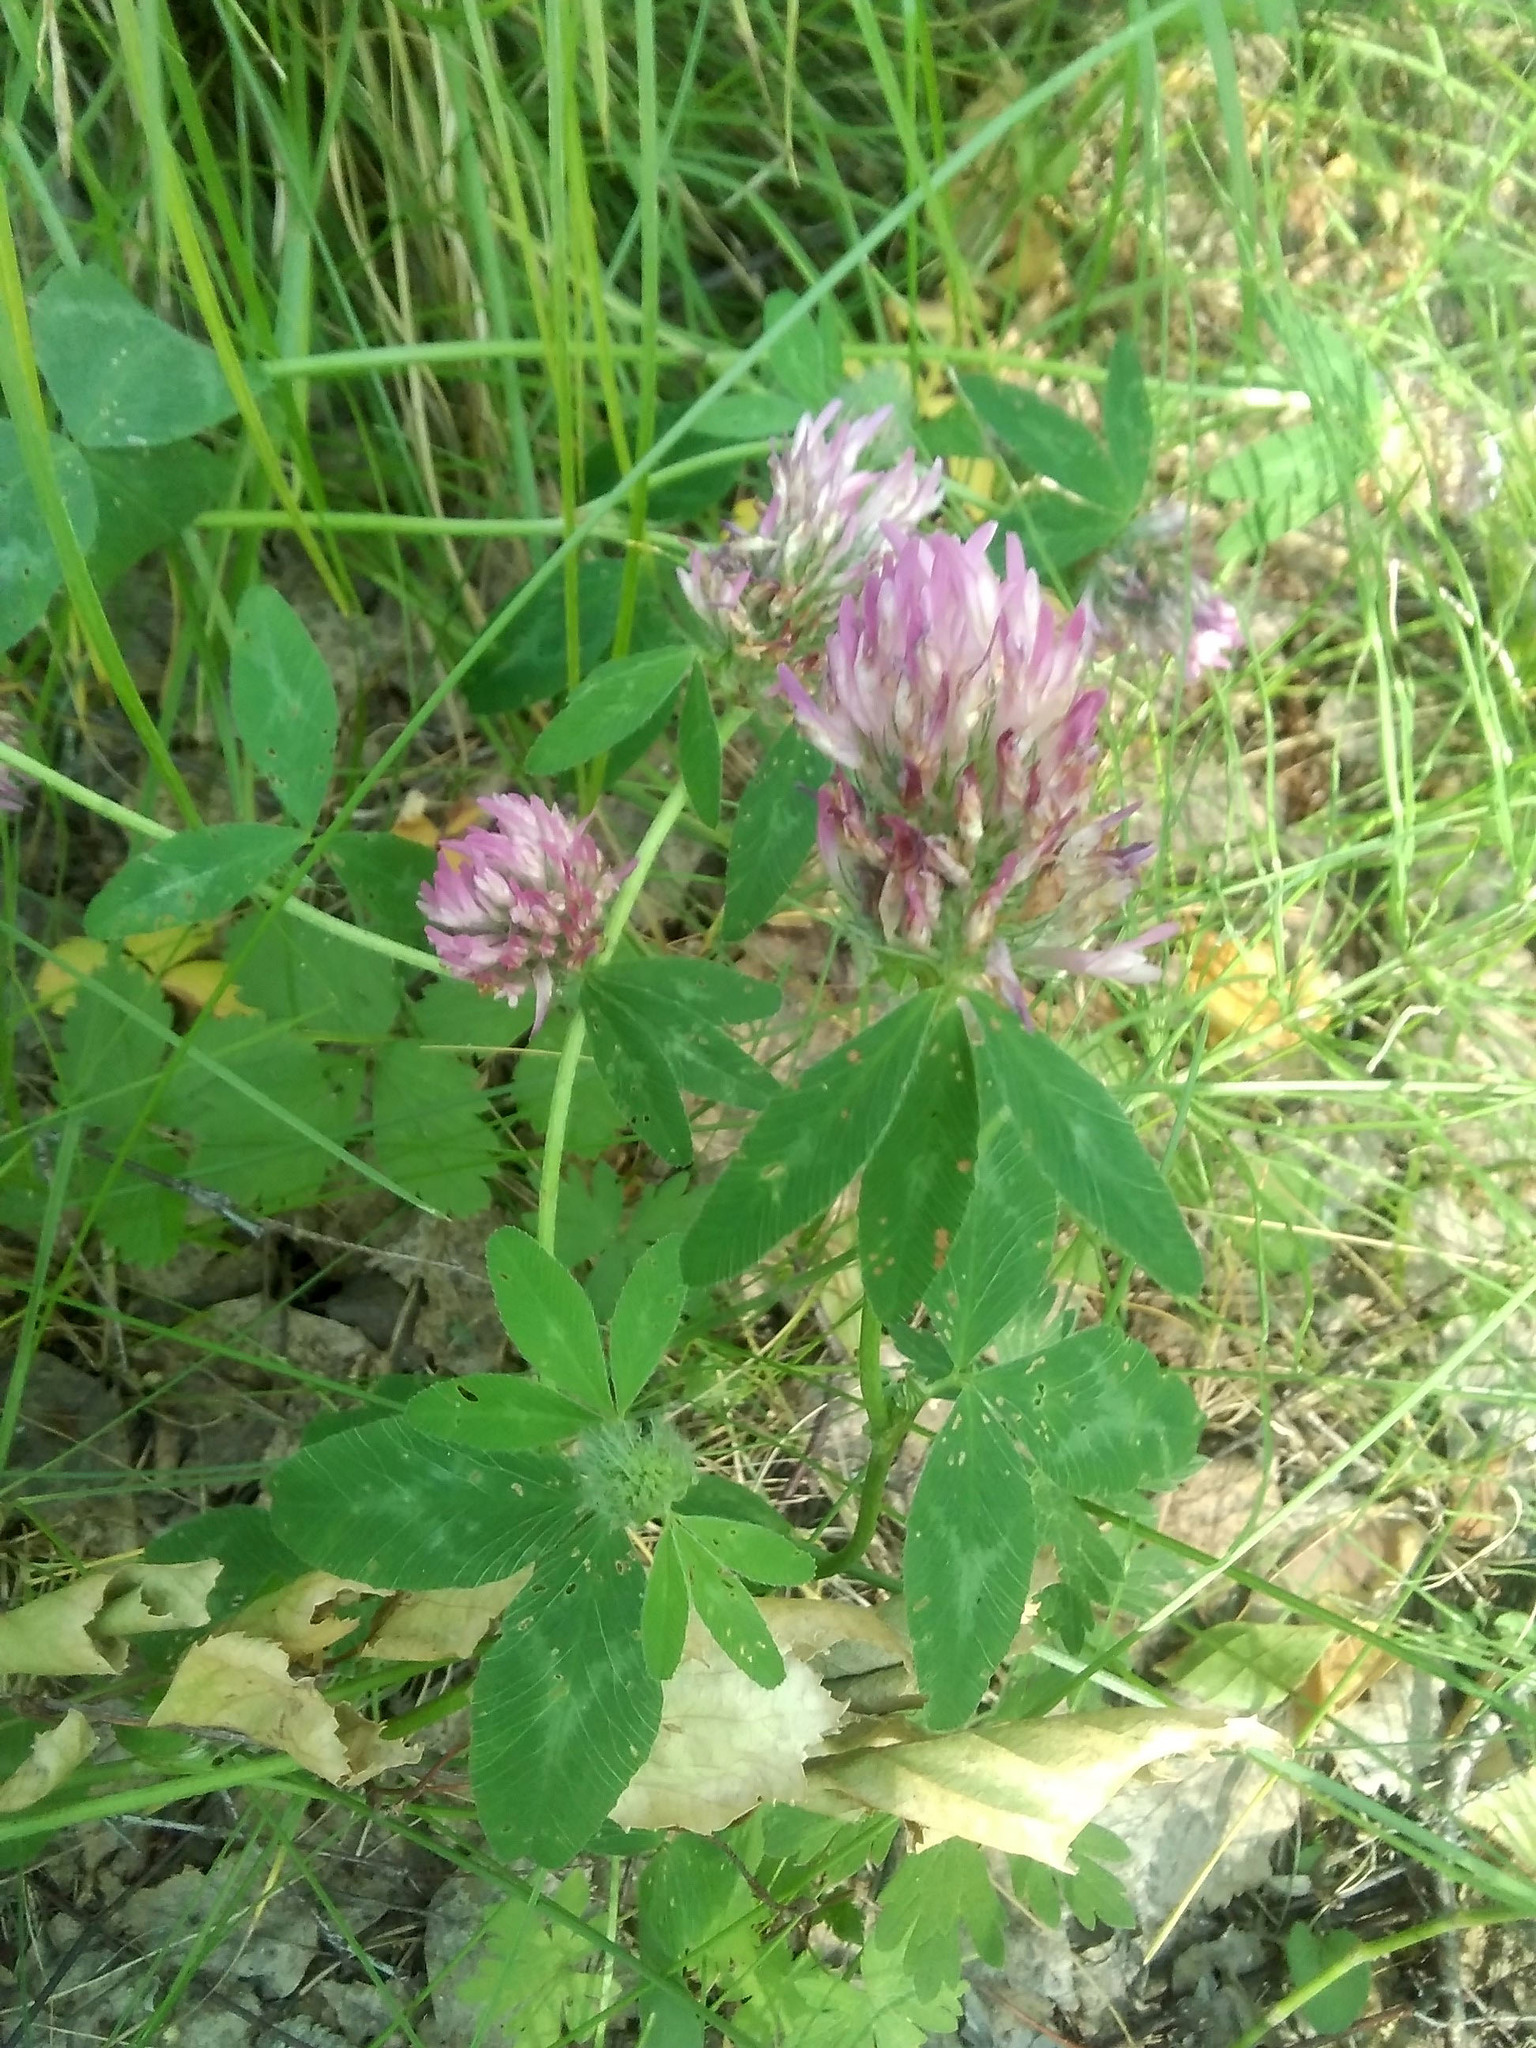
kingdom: Plantae
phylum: Tracheophyta
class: Magnoliopsida
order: Fabales
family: Fabaceae
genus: Trifolium
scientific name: Trifolium pratense
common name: Red clover
